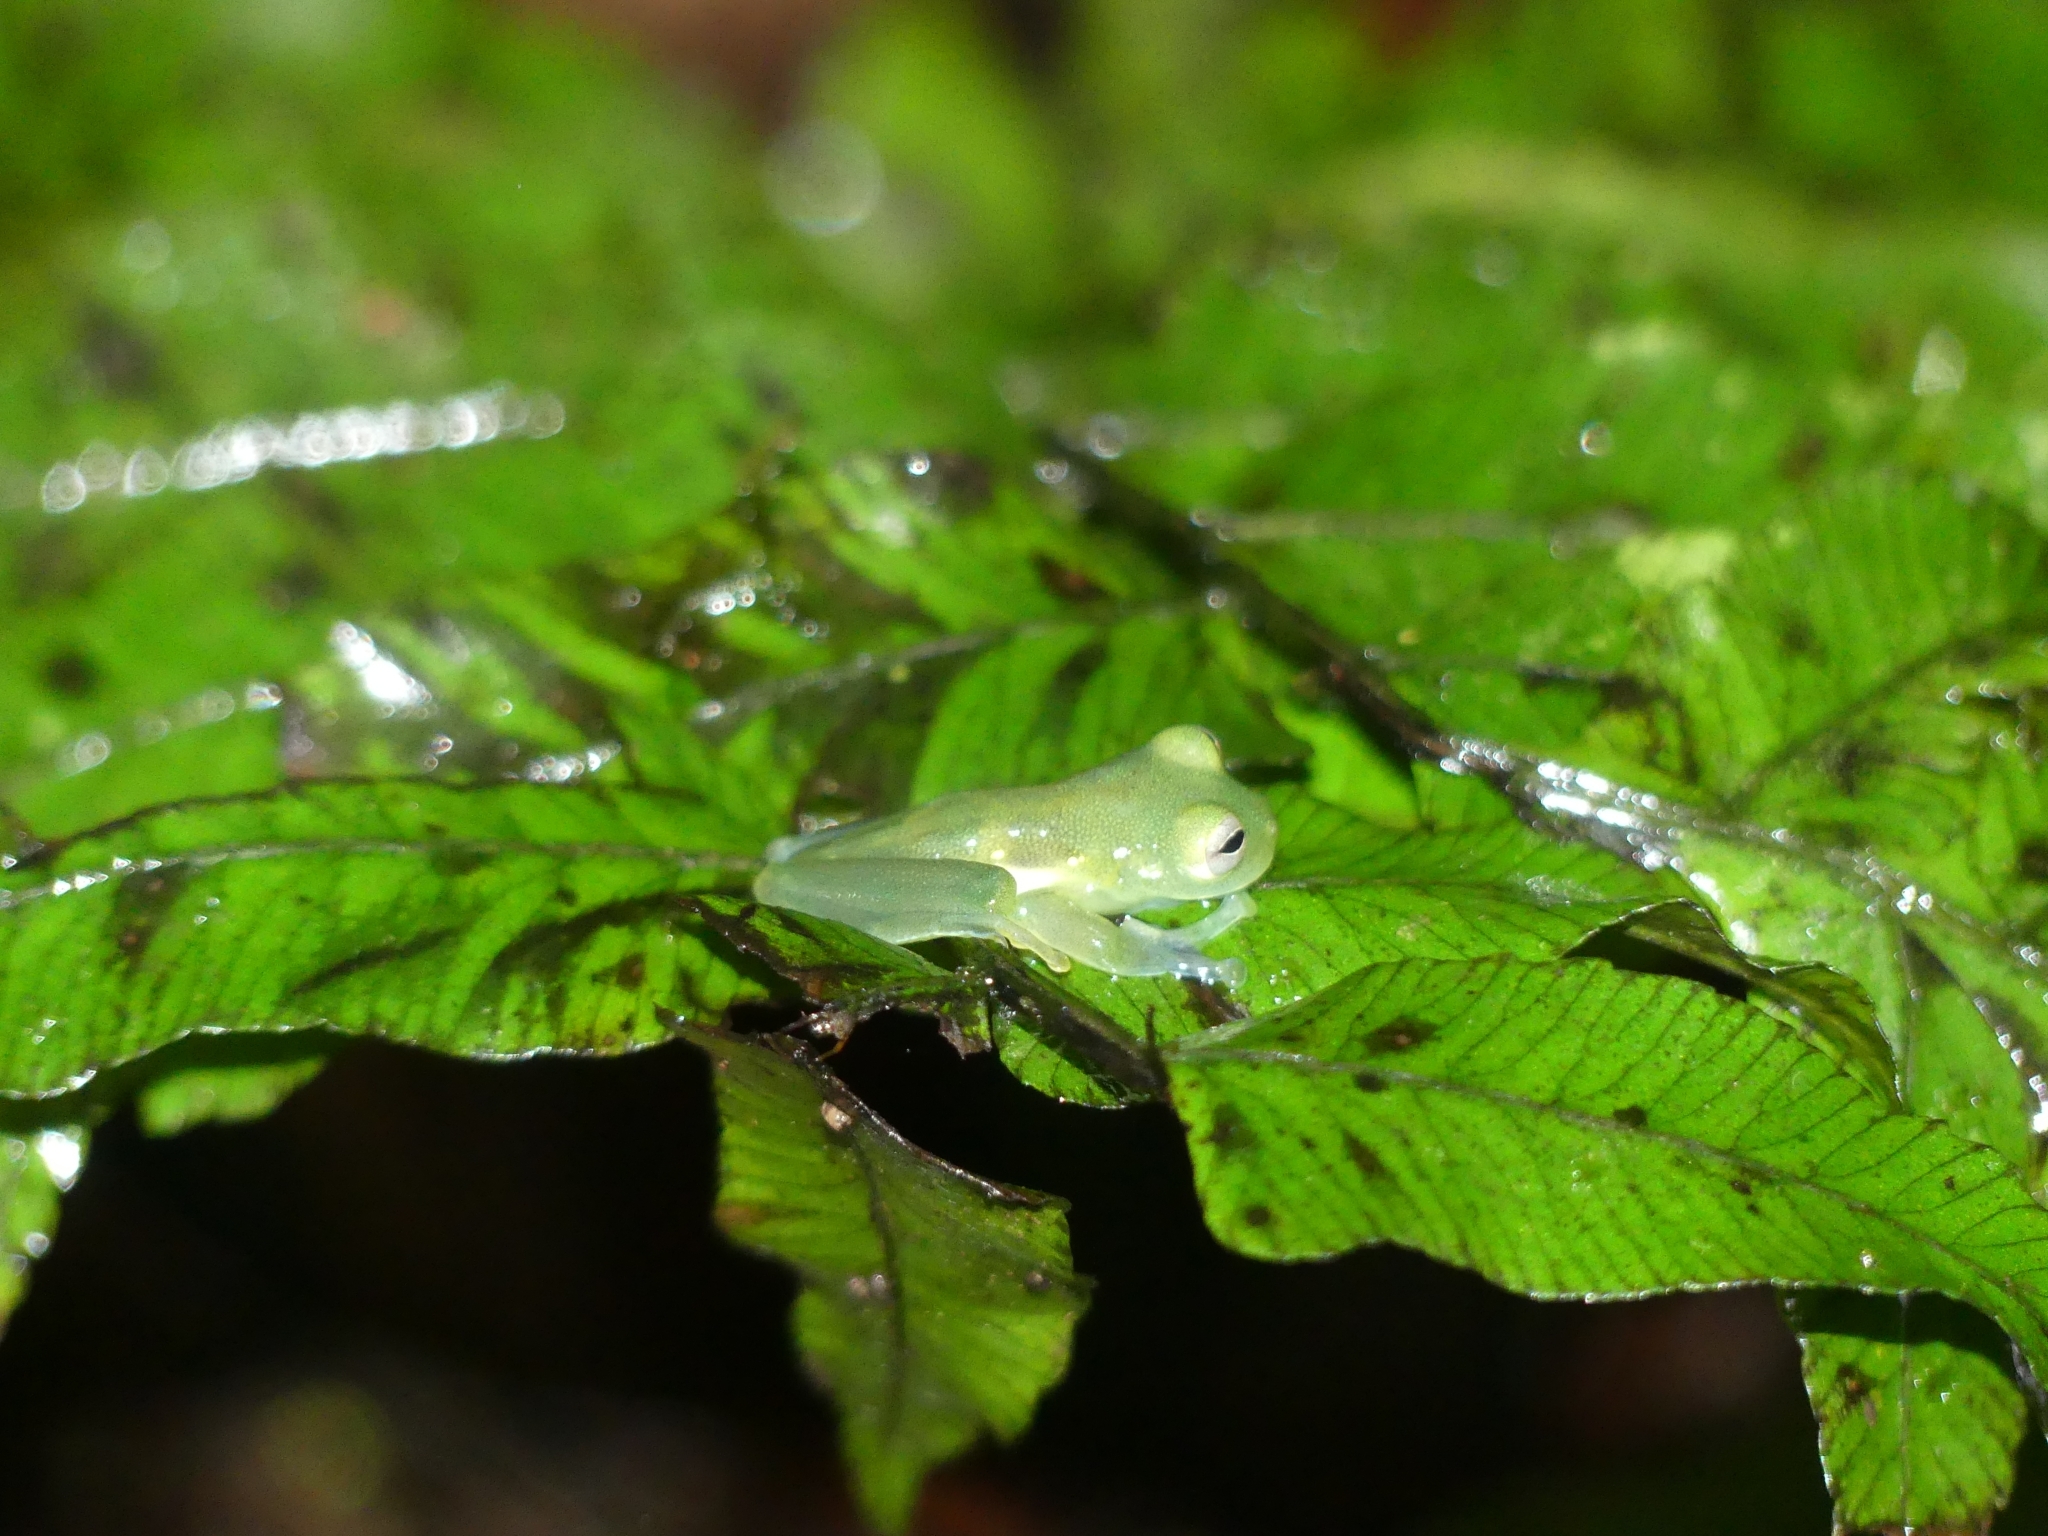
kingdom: Animalia
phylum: Chordata
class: Amphibia
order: Anura
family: Centrolenidae
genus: Teratohyla
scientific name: Teratohyla midas
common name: Santa cecilia cochran frog
